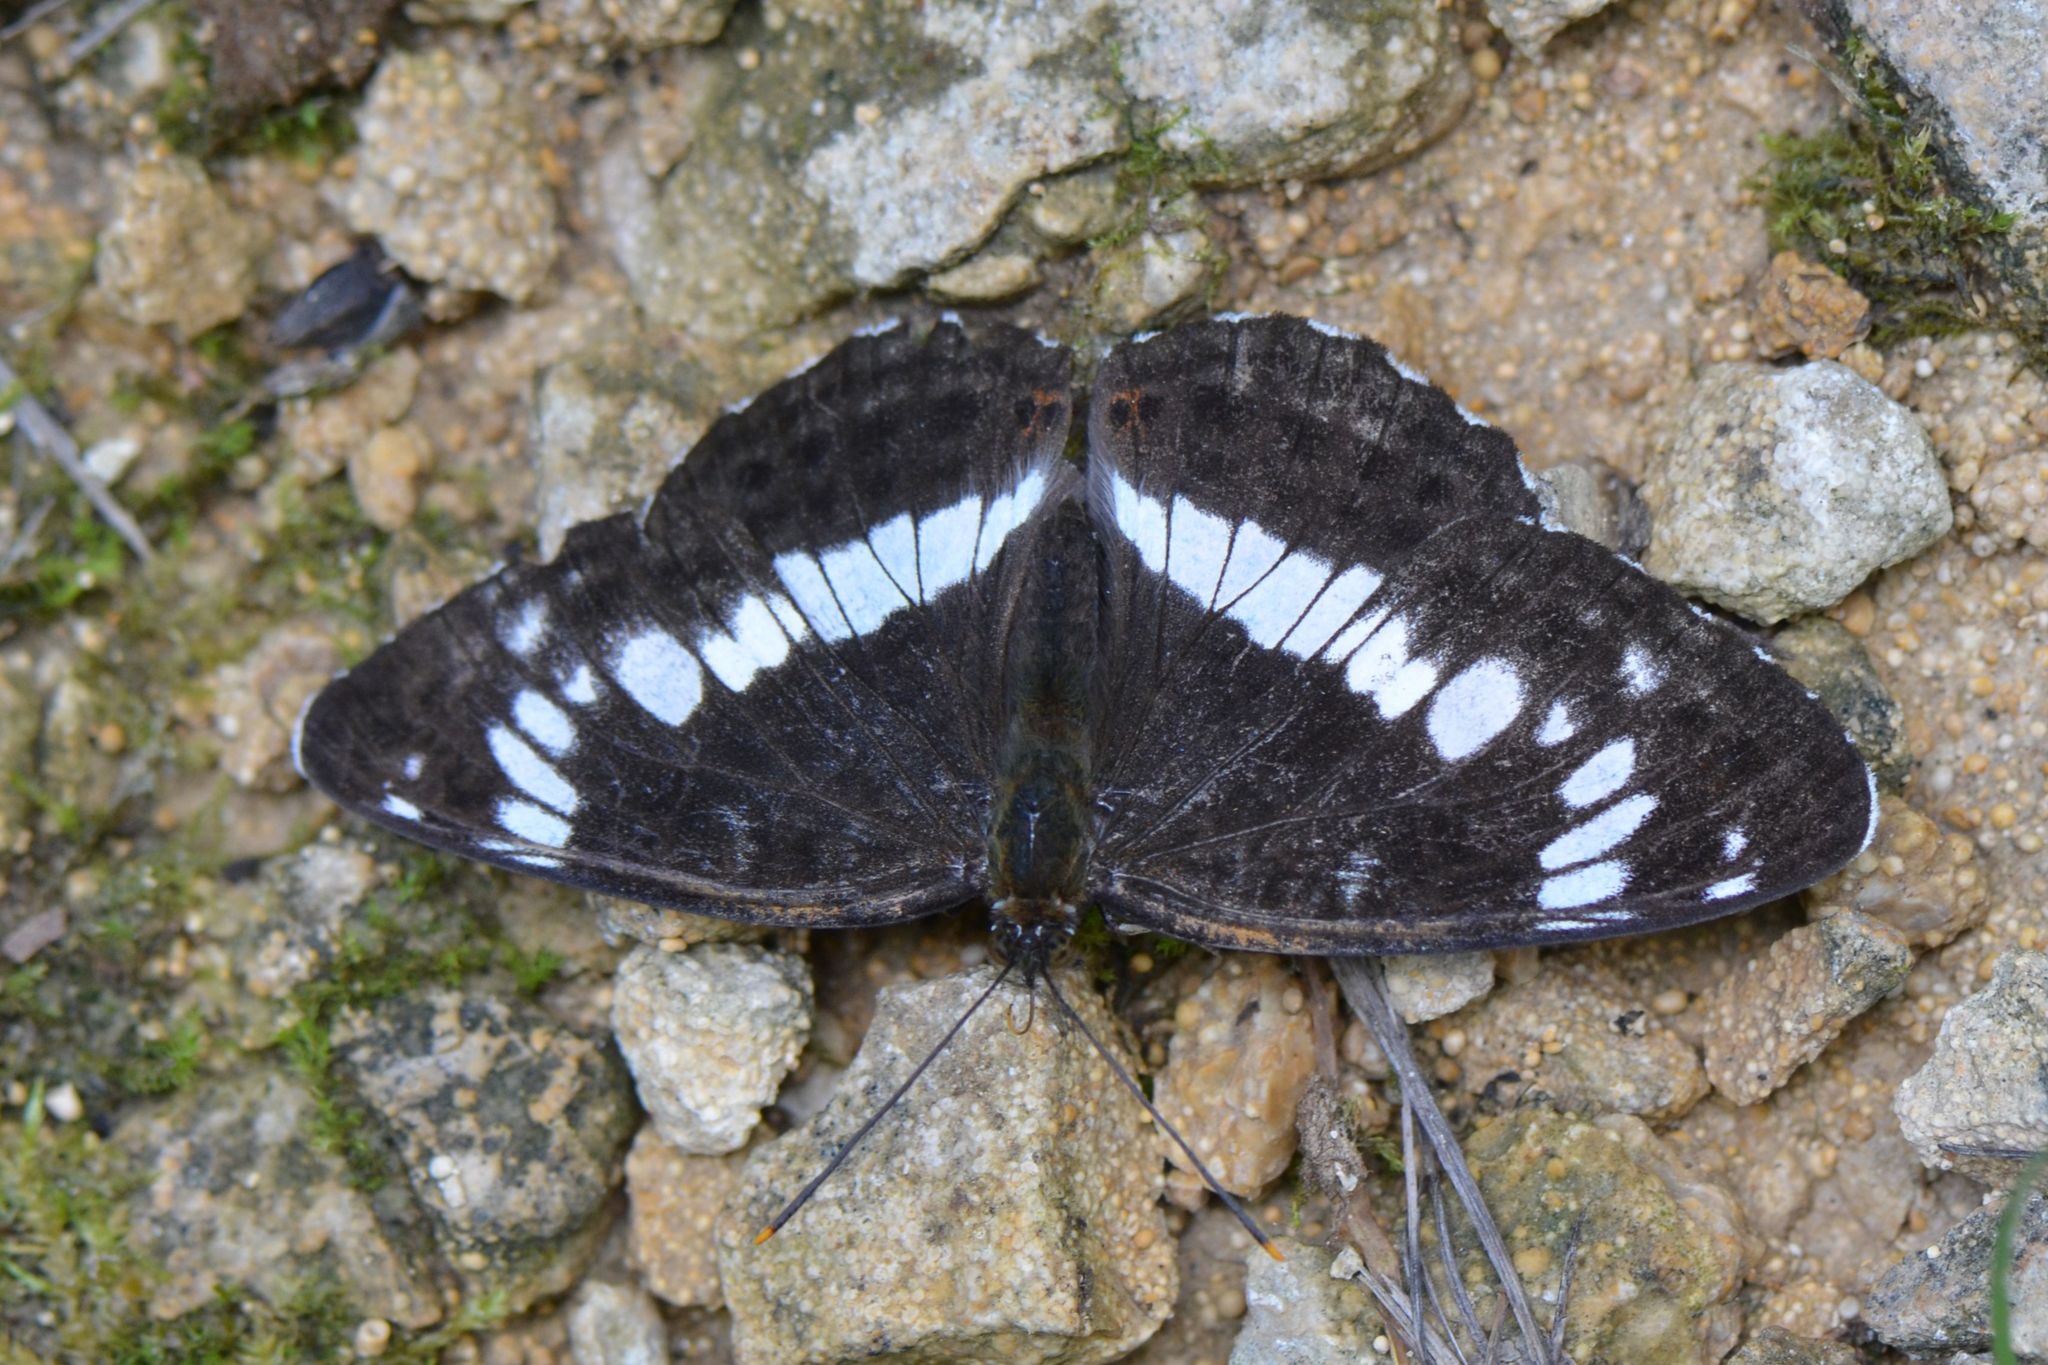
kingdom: Animalia
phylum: Arthropoda
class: Insecta
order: Lepidoptera
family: Nymphalidae
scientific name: Nymphalidae
